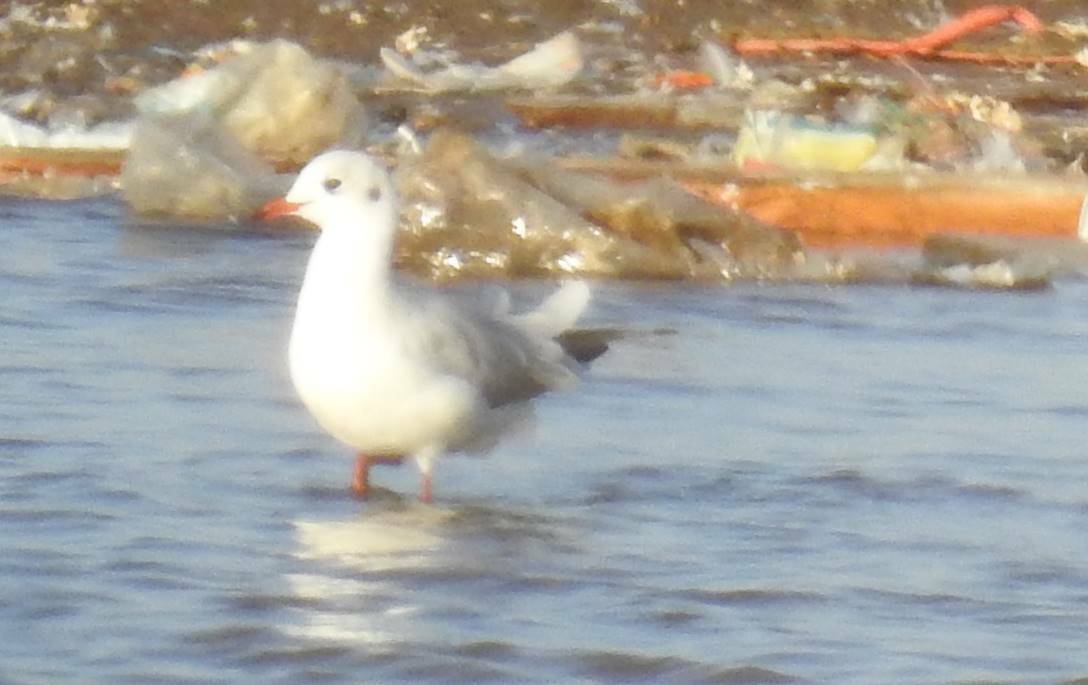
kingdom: Animalia
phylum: Chordata
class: Aves
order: Charadriiformes
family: Laridae
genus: Chroicocephalus
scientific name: Chroicocephalus ridibundus
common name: Black-headed gull
